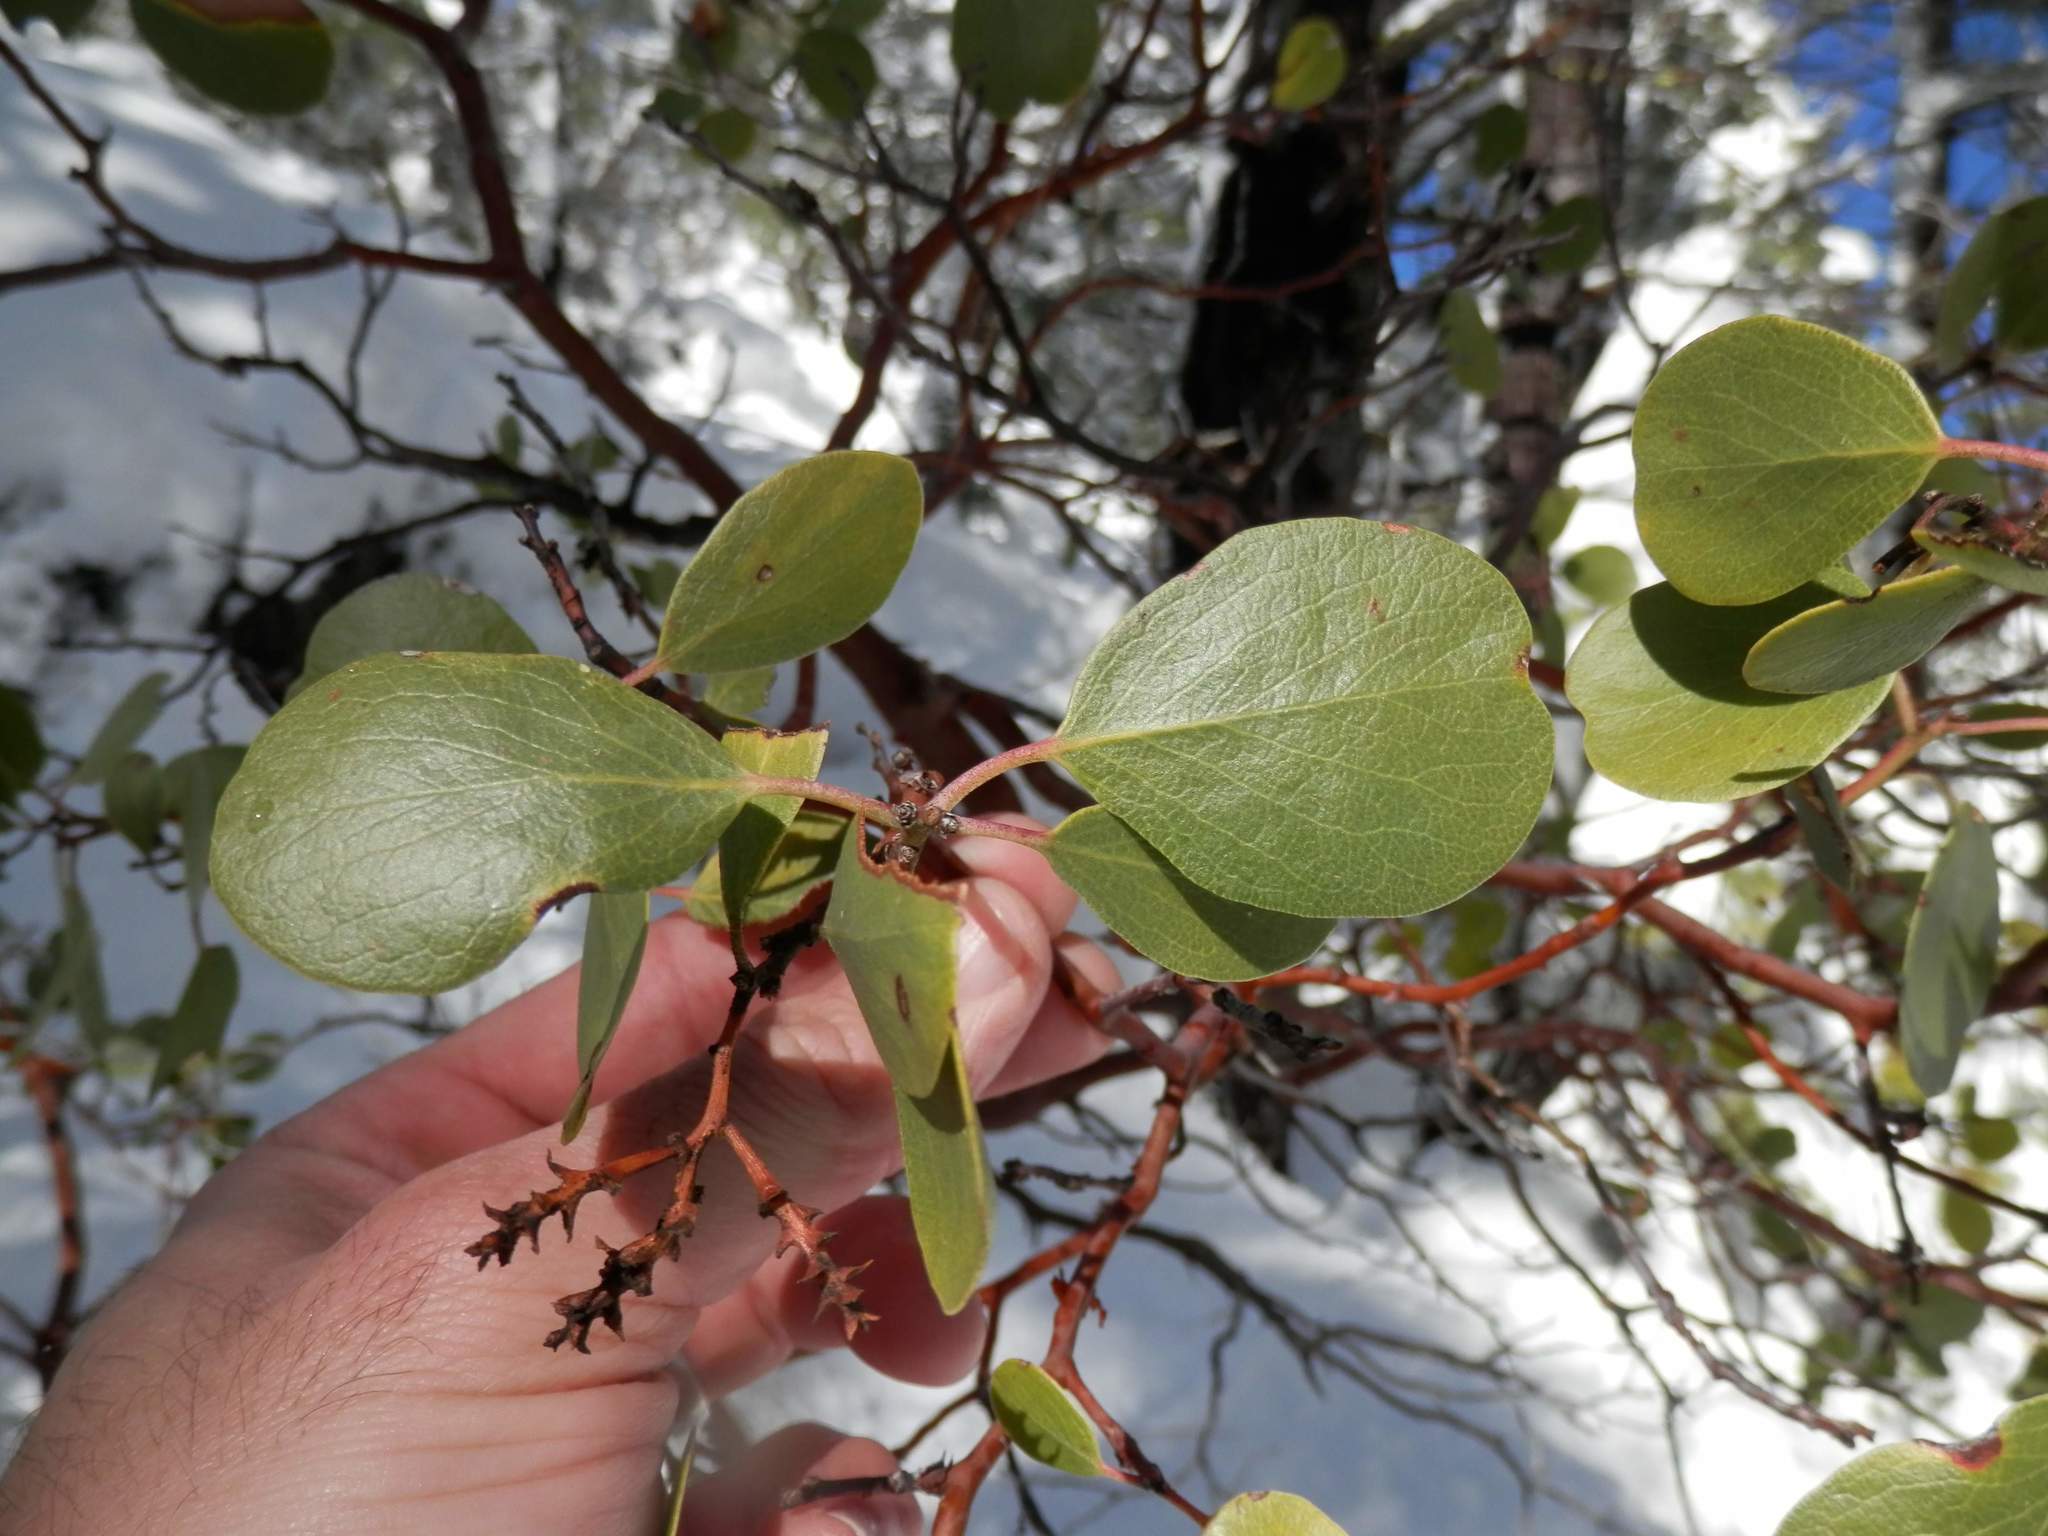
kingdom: Plantae
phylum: Tracheophyta
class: Magnoliopsida
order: Ericales
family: Ericaceae
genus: Arctostaphylos
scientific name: Arctostaphylos patula
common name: Green-leaf manzanita
